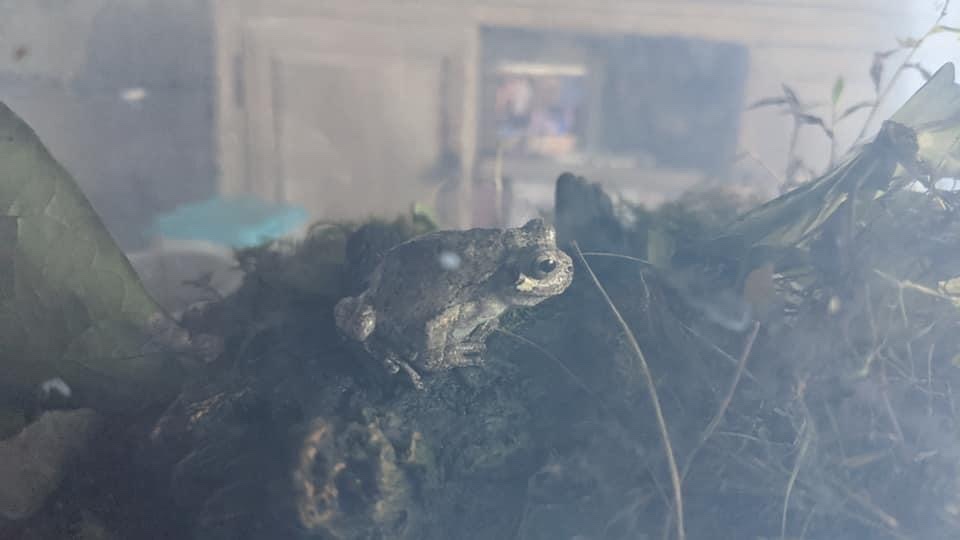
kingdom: Animalia
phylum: Chordata
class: Amphibia
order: Anura
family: Hylidae
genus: Dryophytes
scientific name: Dryophytes chrysoscelis
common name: Cope's gray treefrog
